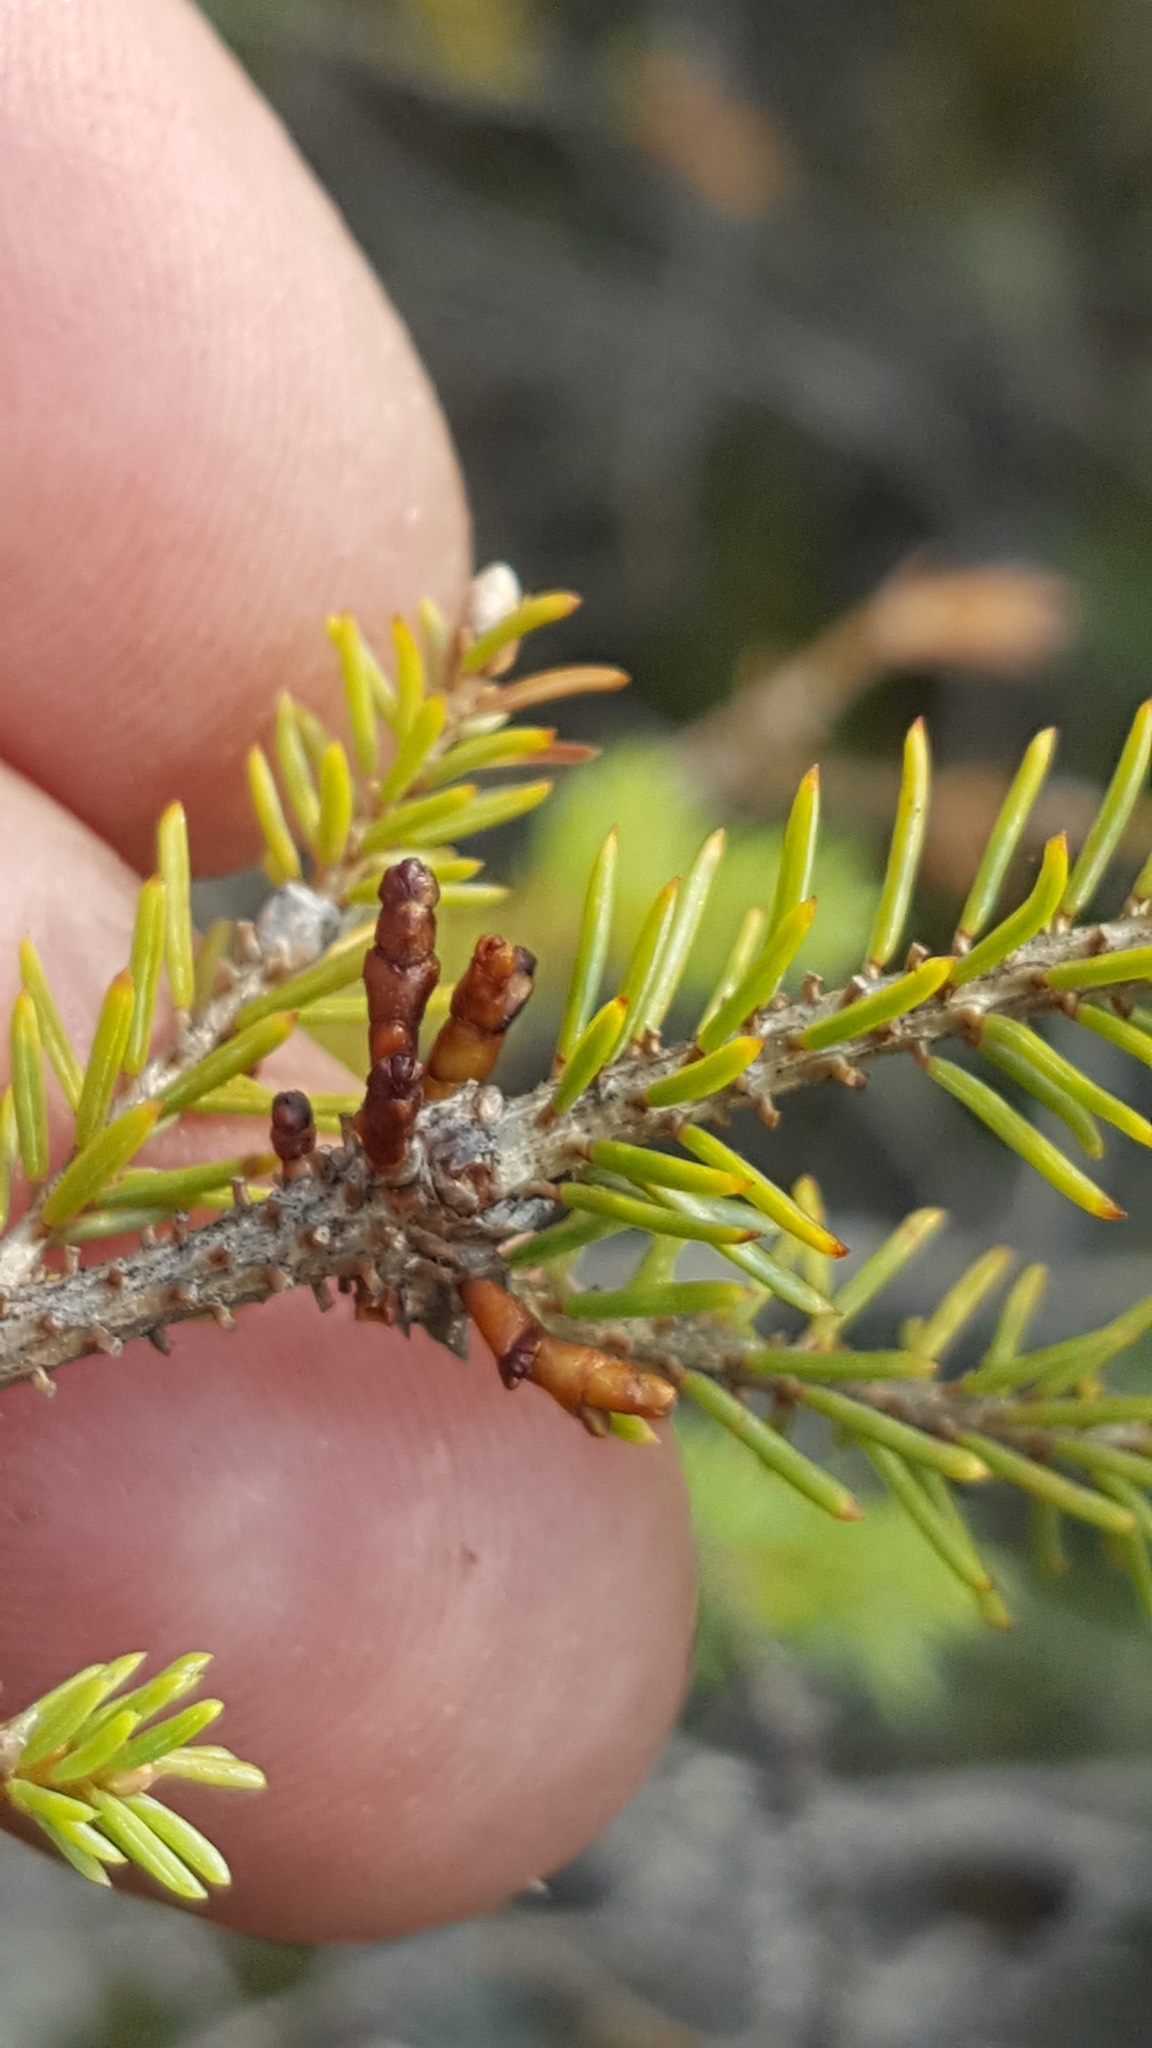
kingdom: Plantae
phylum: Tracheophyta
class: Magnoliopsida
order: Santalales
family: Viscaceae
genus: Arceuthobium
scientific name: Arceuthobium pusillum
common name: Dwarf-mistletoe
